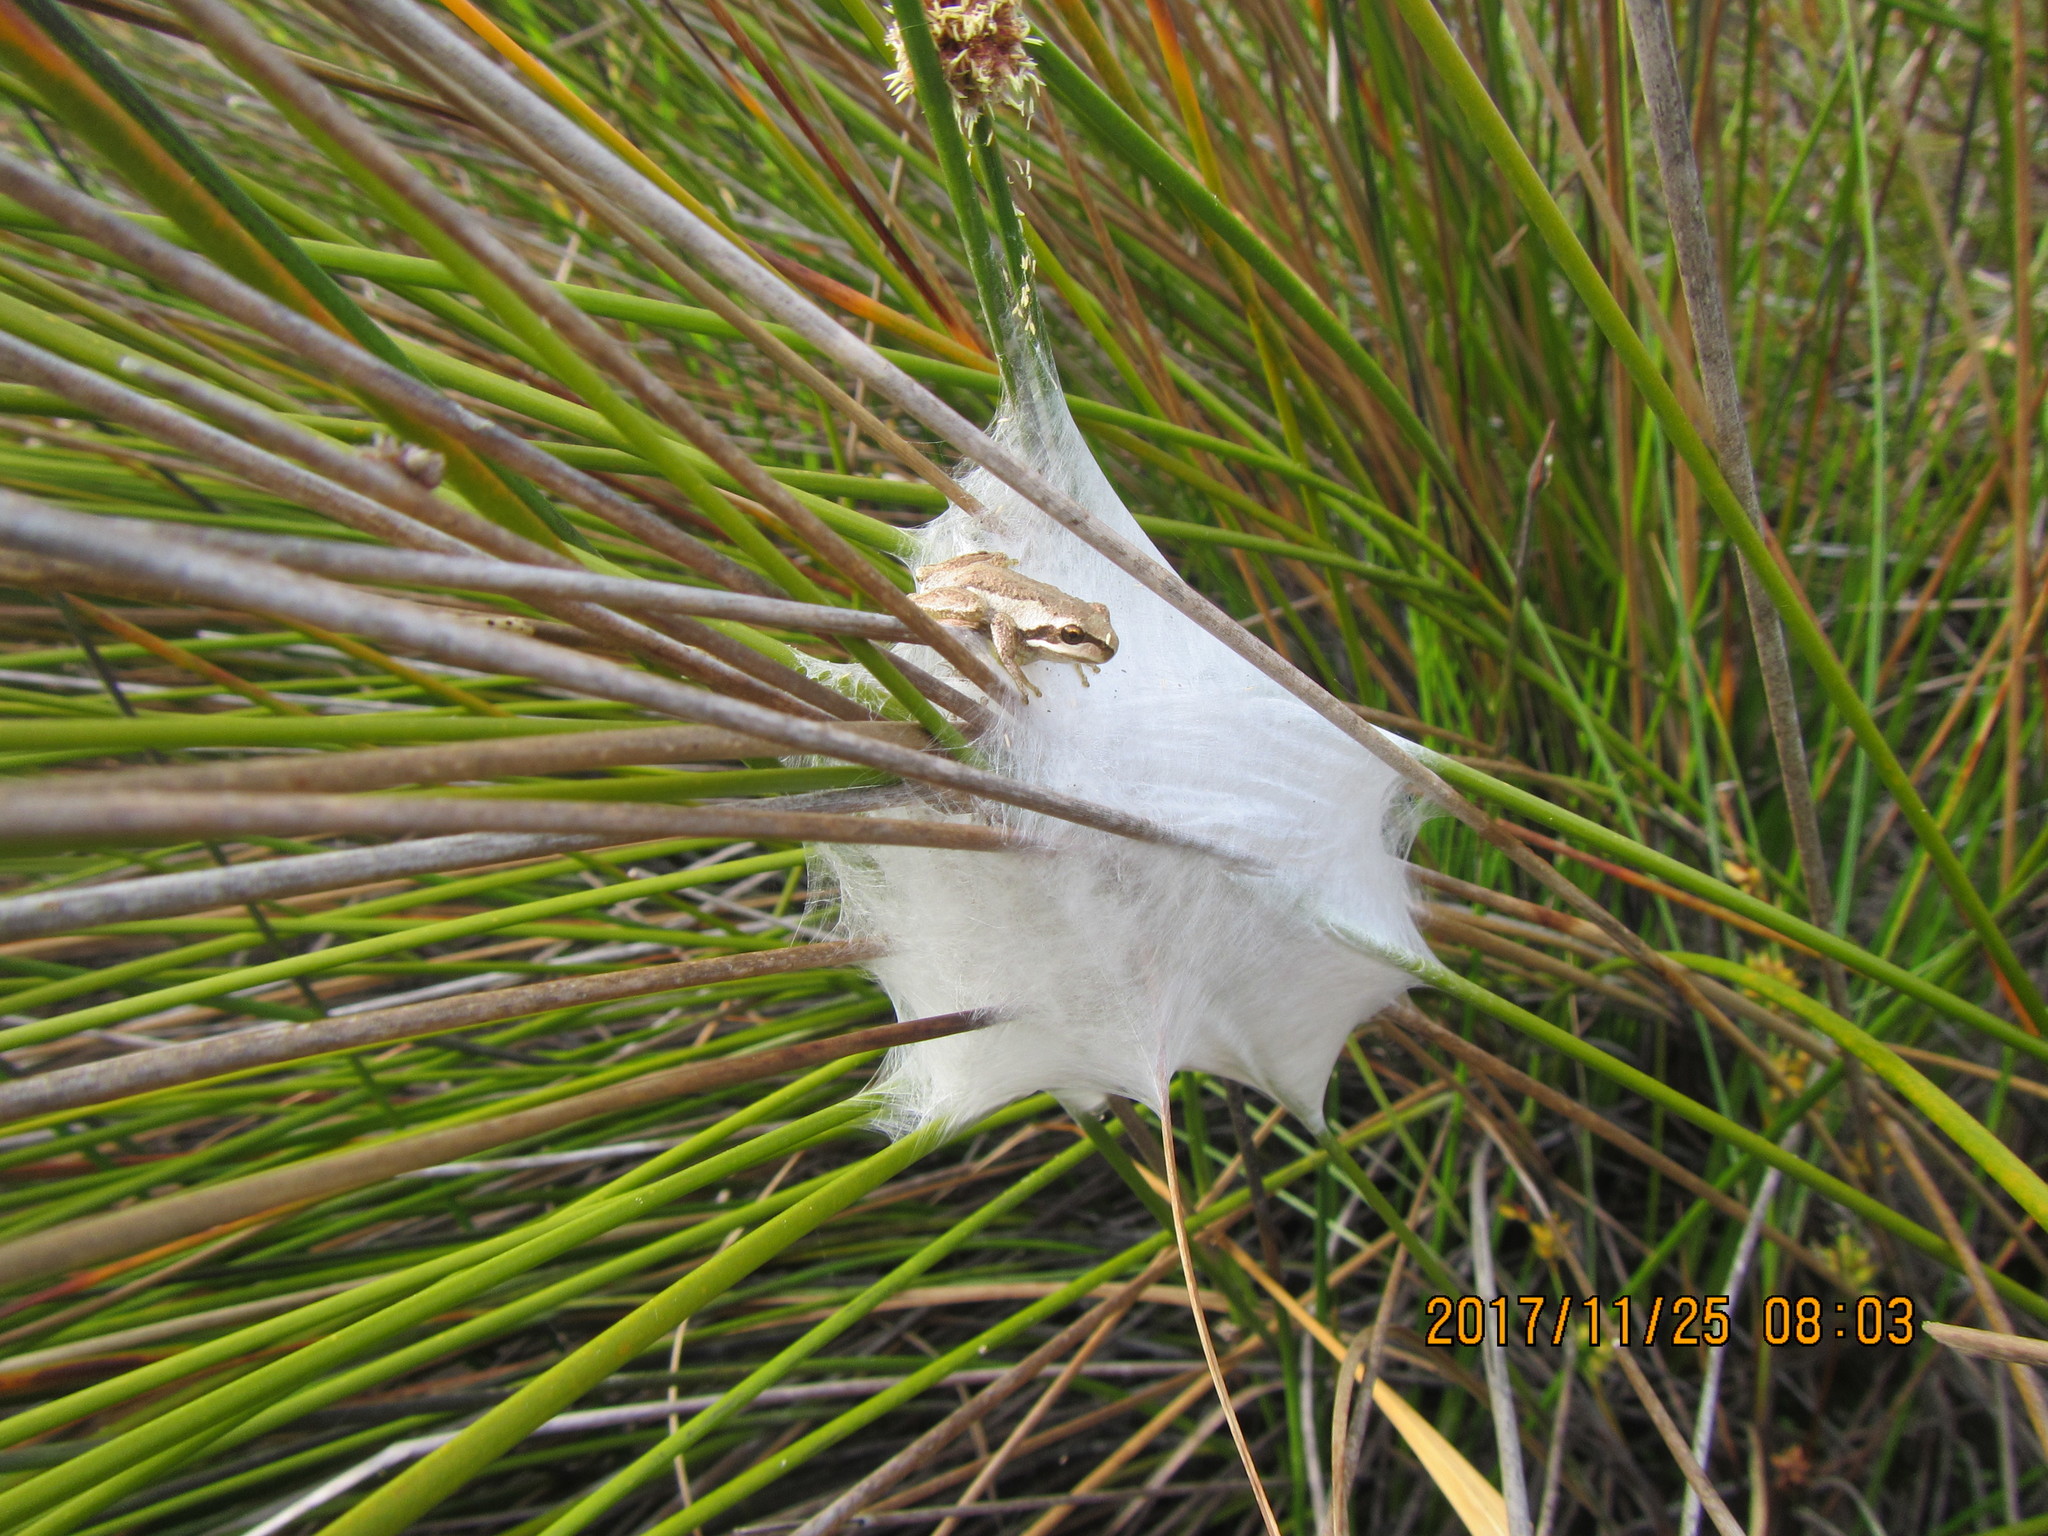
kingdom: Animalia
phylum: Chordata
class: Amphibia
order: Anura
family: Pelodryadidae
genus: Litoria
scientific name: Litoria ewingii
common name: Southern brown tree frog
